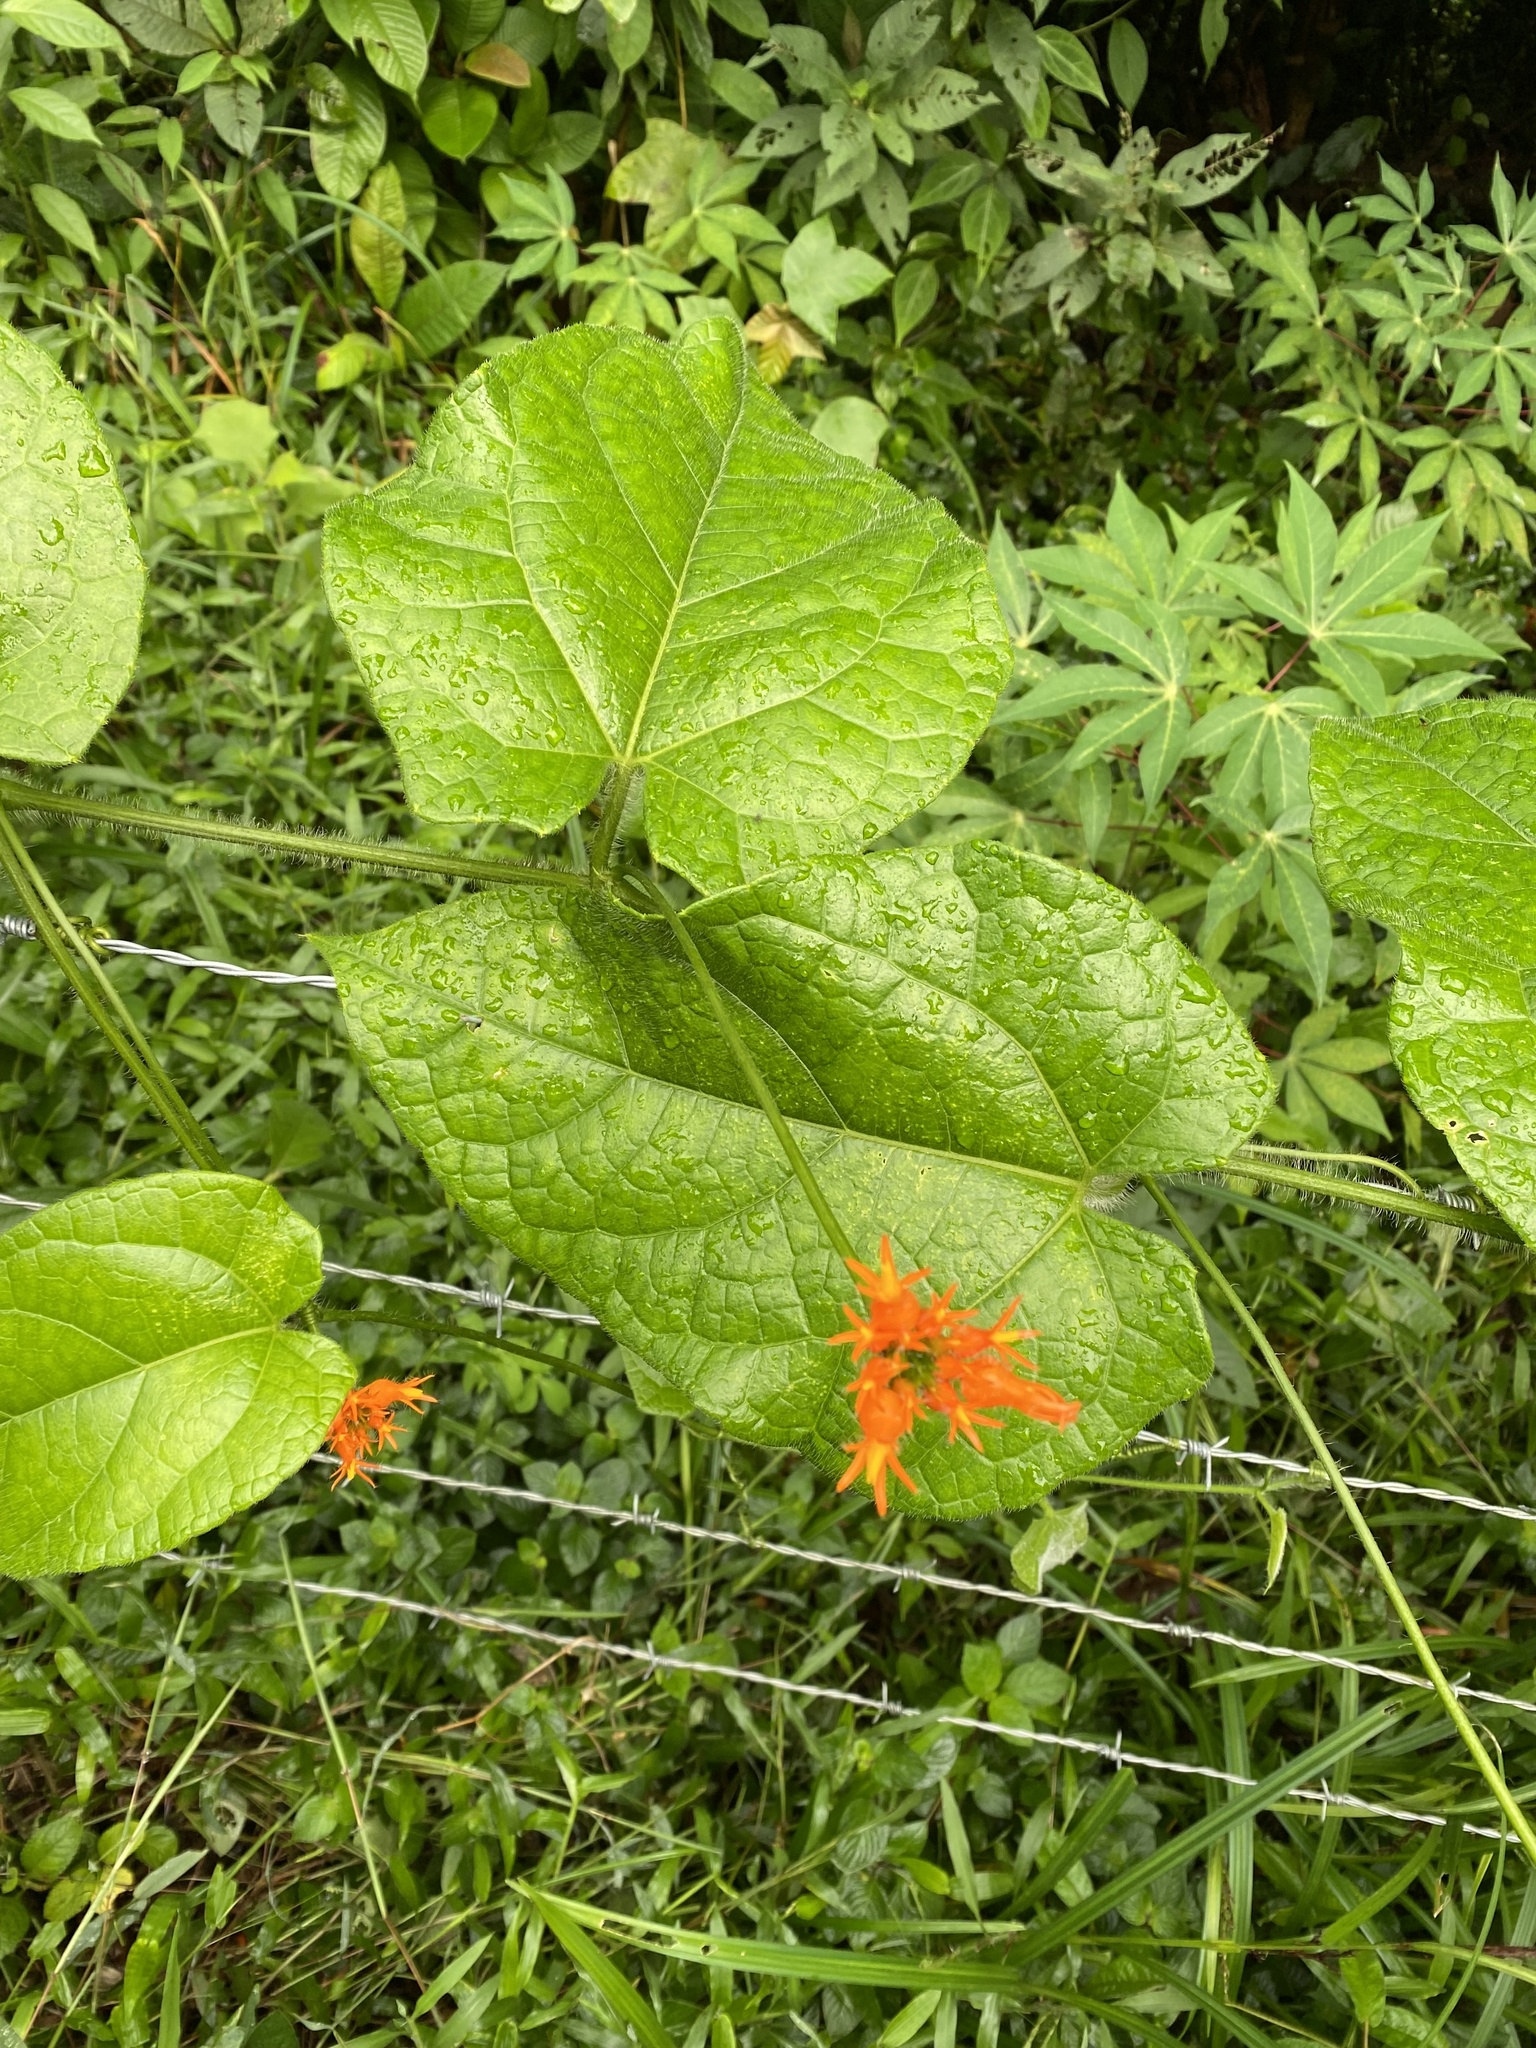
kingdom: Plantae
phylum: Tracheophyta
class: Magnoliopsida
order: Cucurbitales
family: Cucurbitaceae
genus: Gurania
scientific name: Gurania bignoniacea
